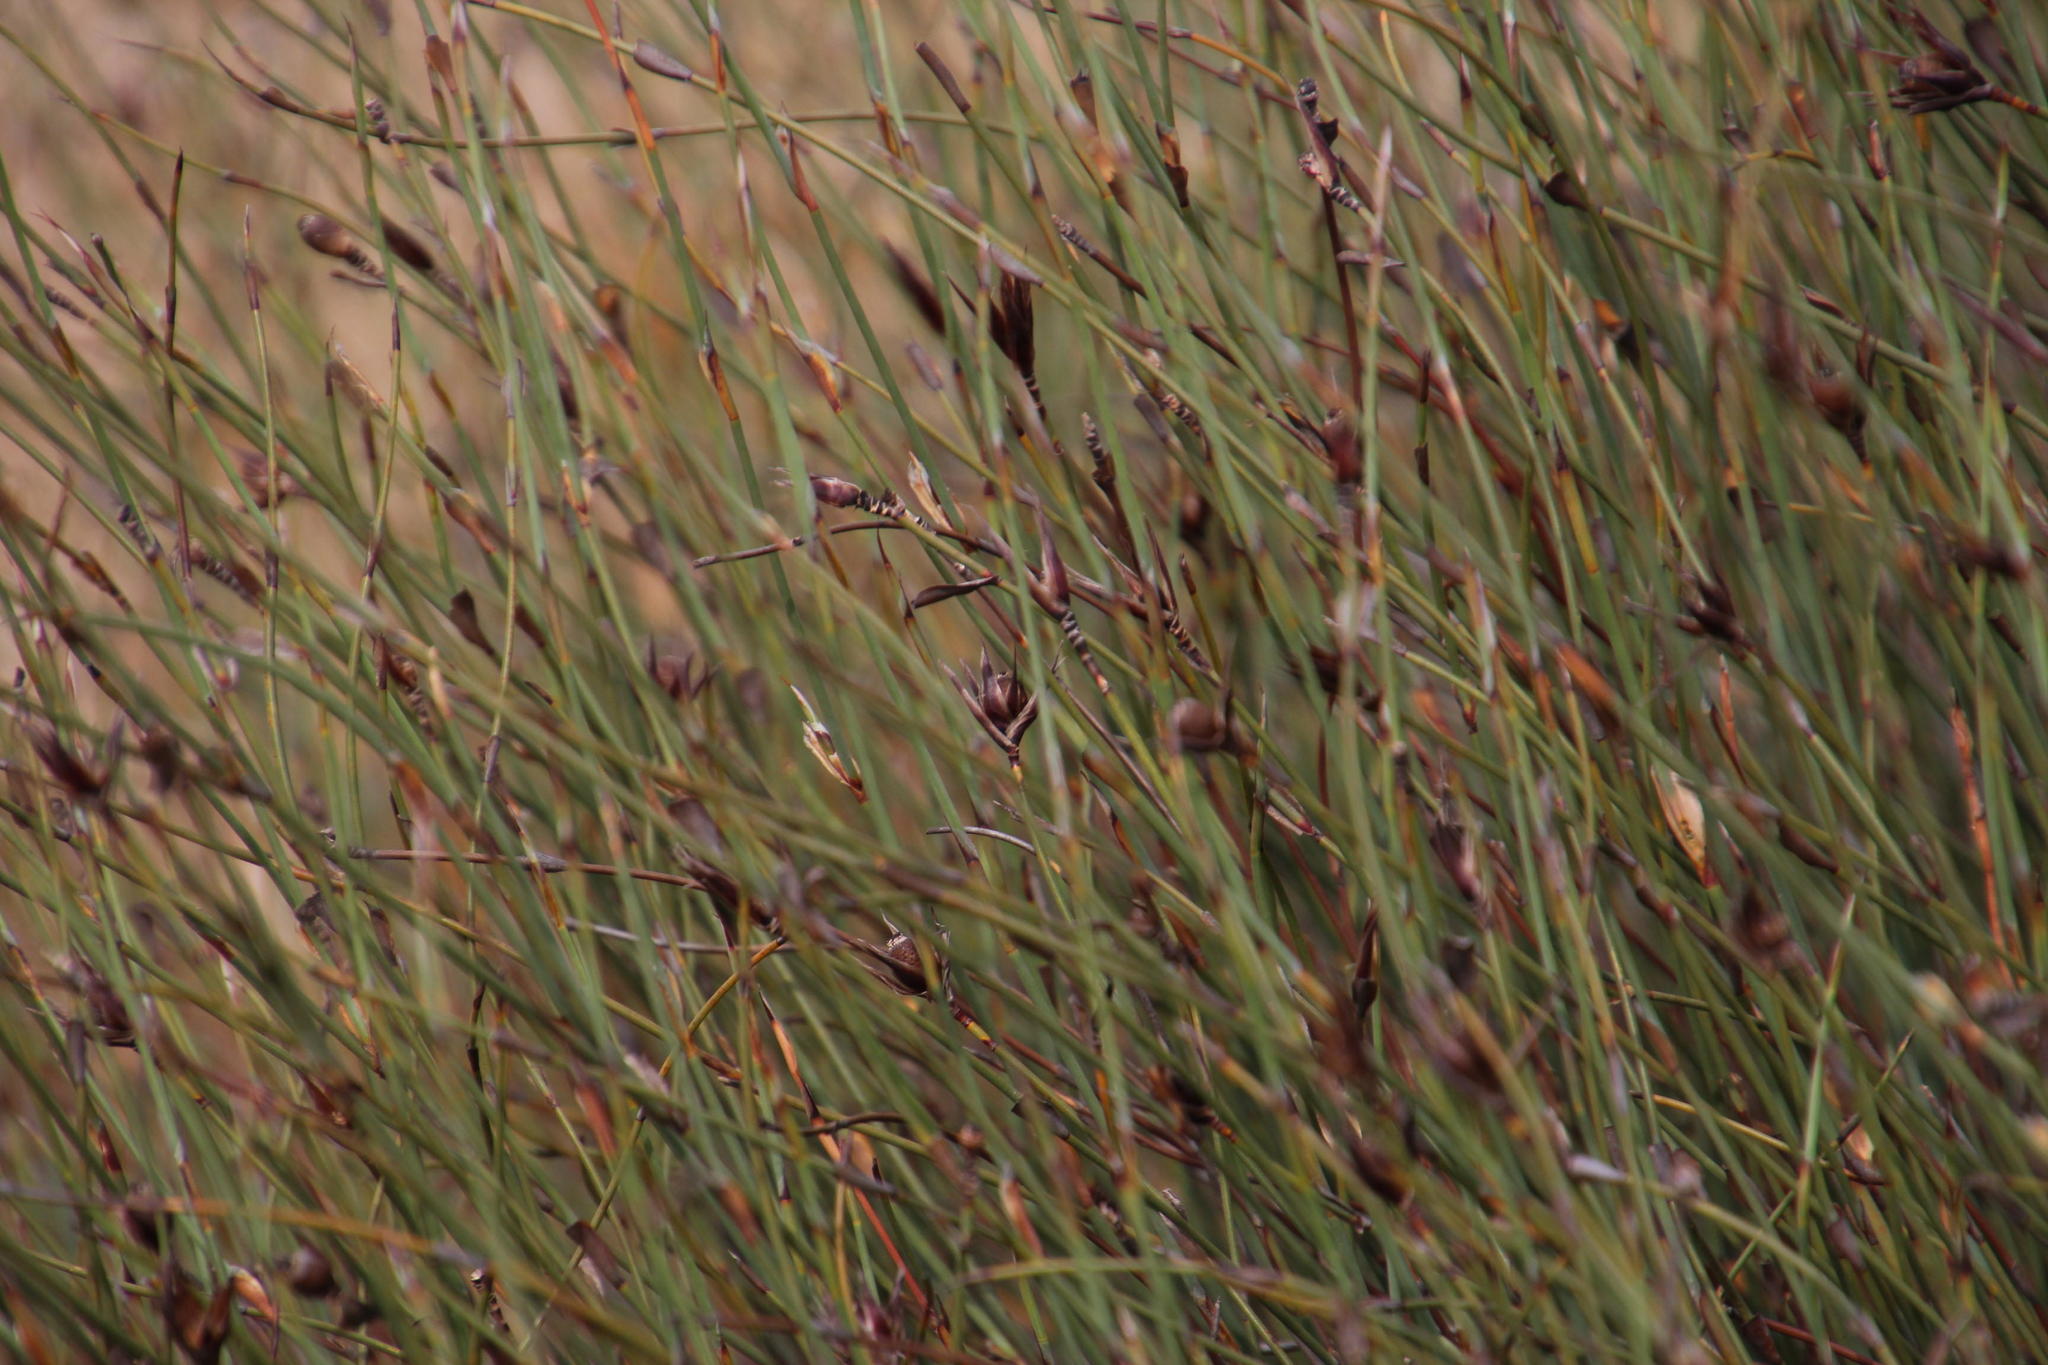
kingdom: Plantae
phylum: Tracheophyta
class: Liliopsida
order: Poales
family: Restionaceae
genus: Willdenowia
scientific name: Willdenowia incurvata
